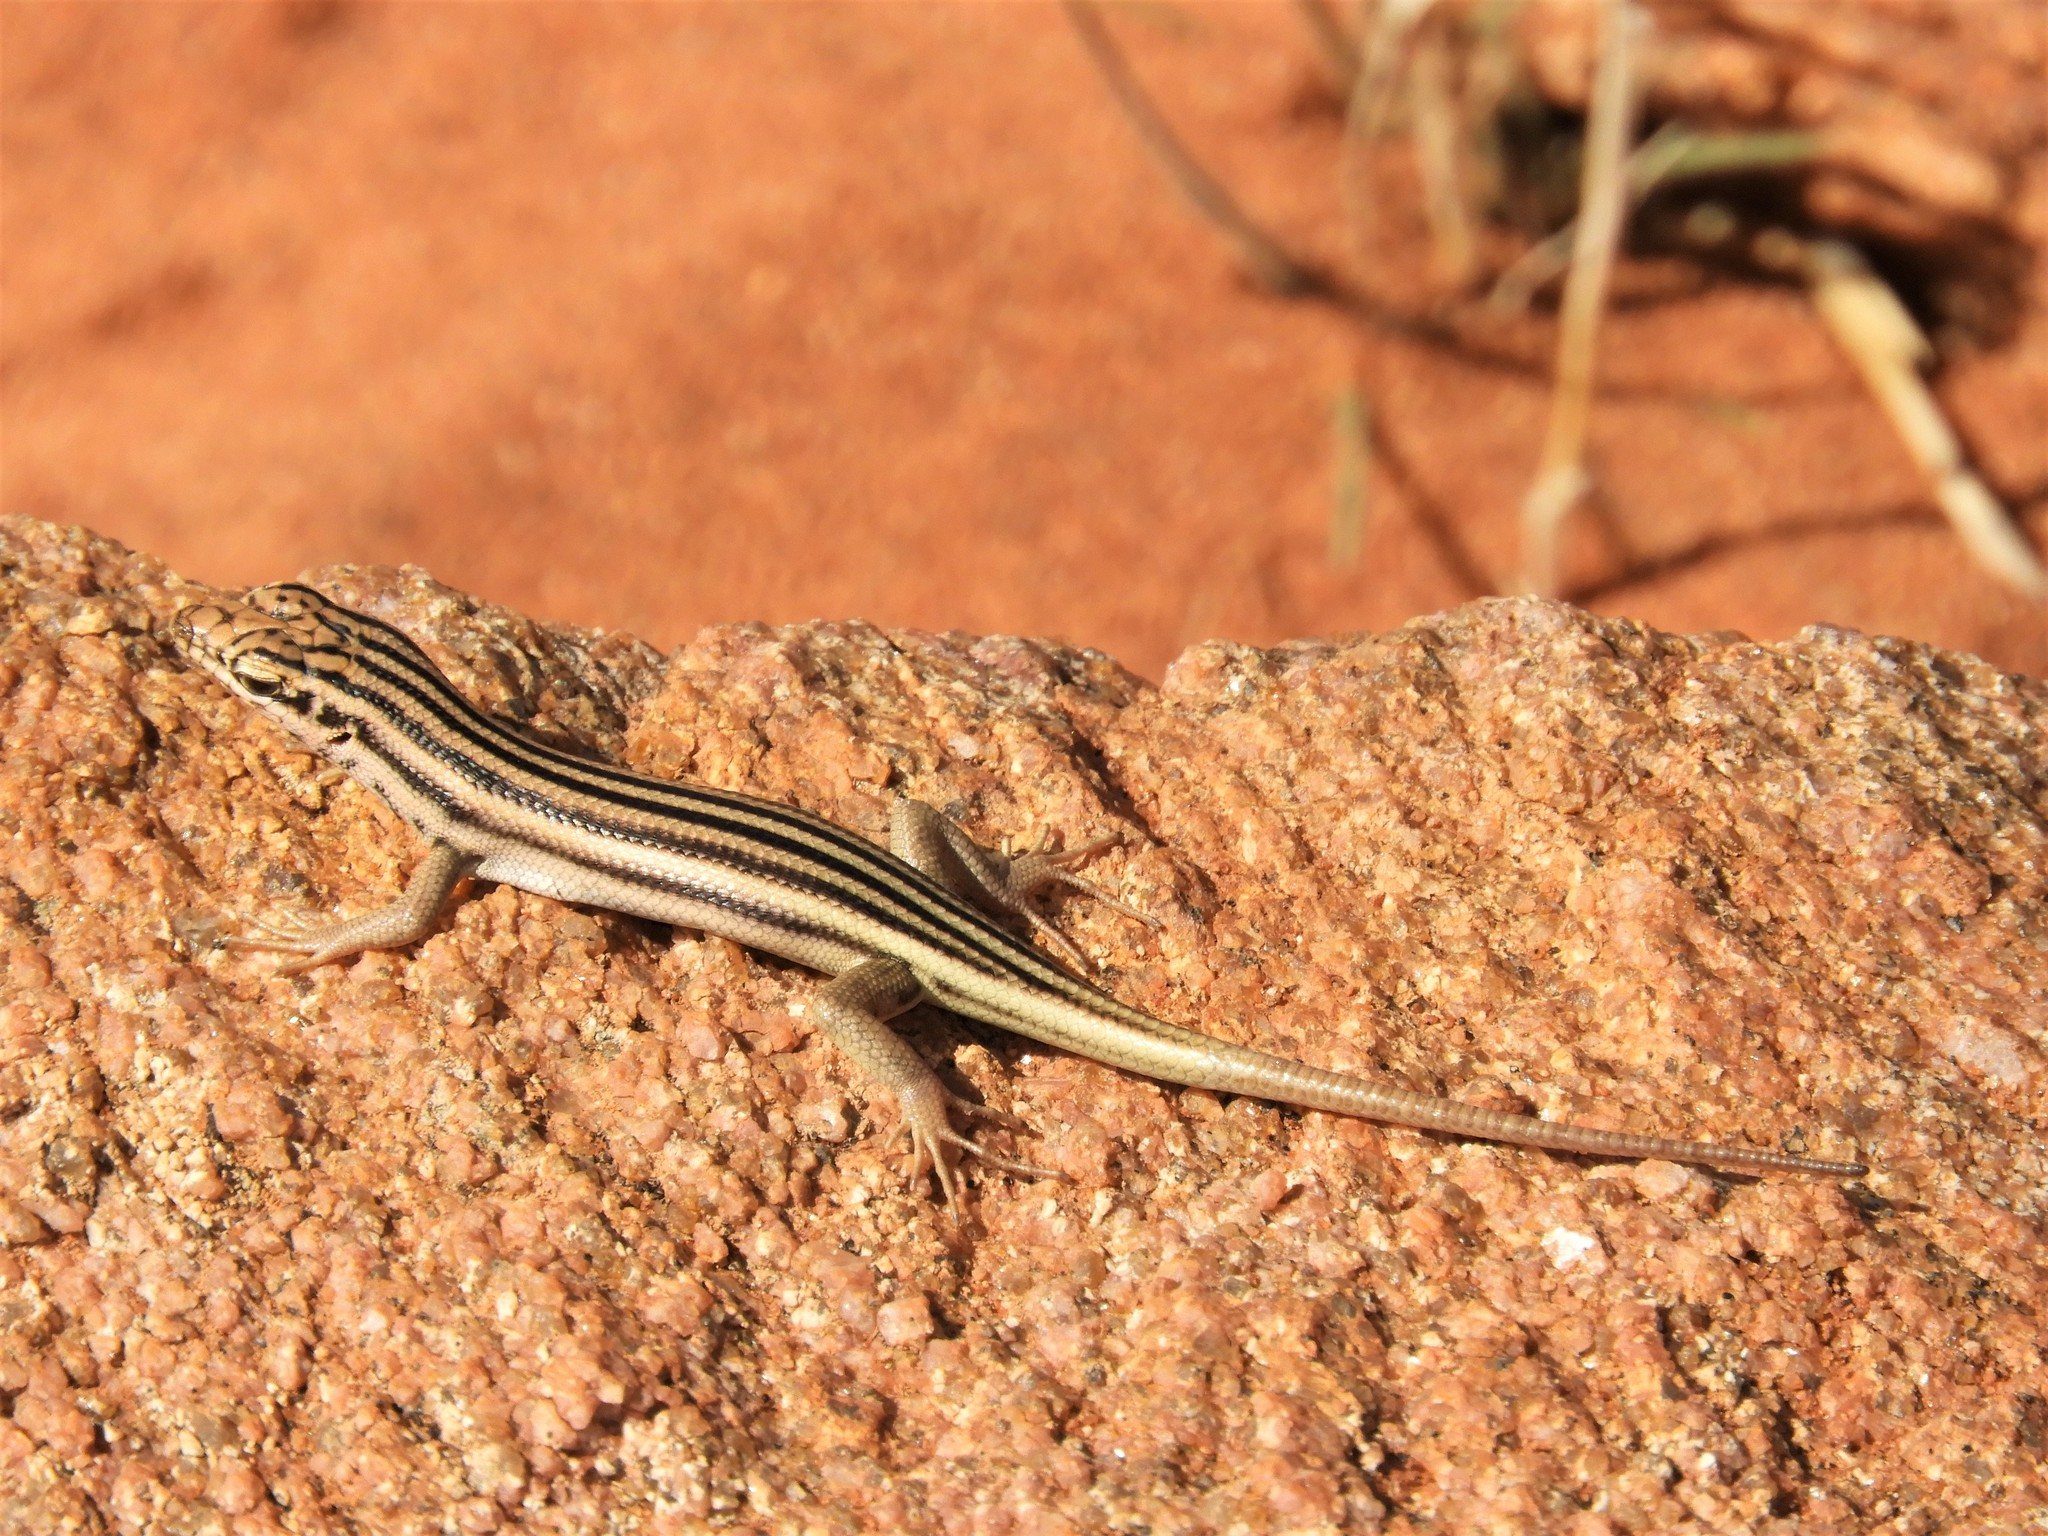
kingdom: Animalia
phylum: Chordata
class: Squamata
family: Scincidae
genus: Trachylepis
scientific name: Trachylepis sulcata
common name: Western rock skink
